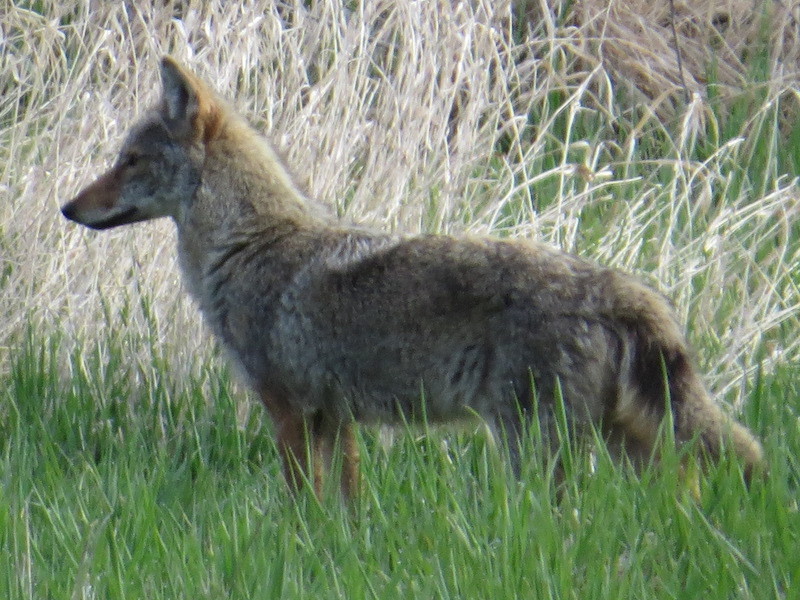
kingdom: Animalia
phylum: Chordata
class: Mammalia
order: Carnivora
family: Canidae
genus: Canis
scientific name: Canis latrans
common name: Coyote
